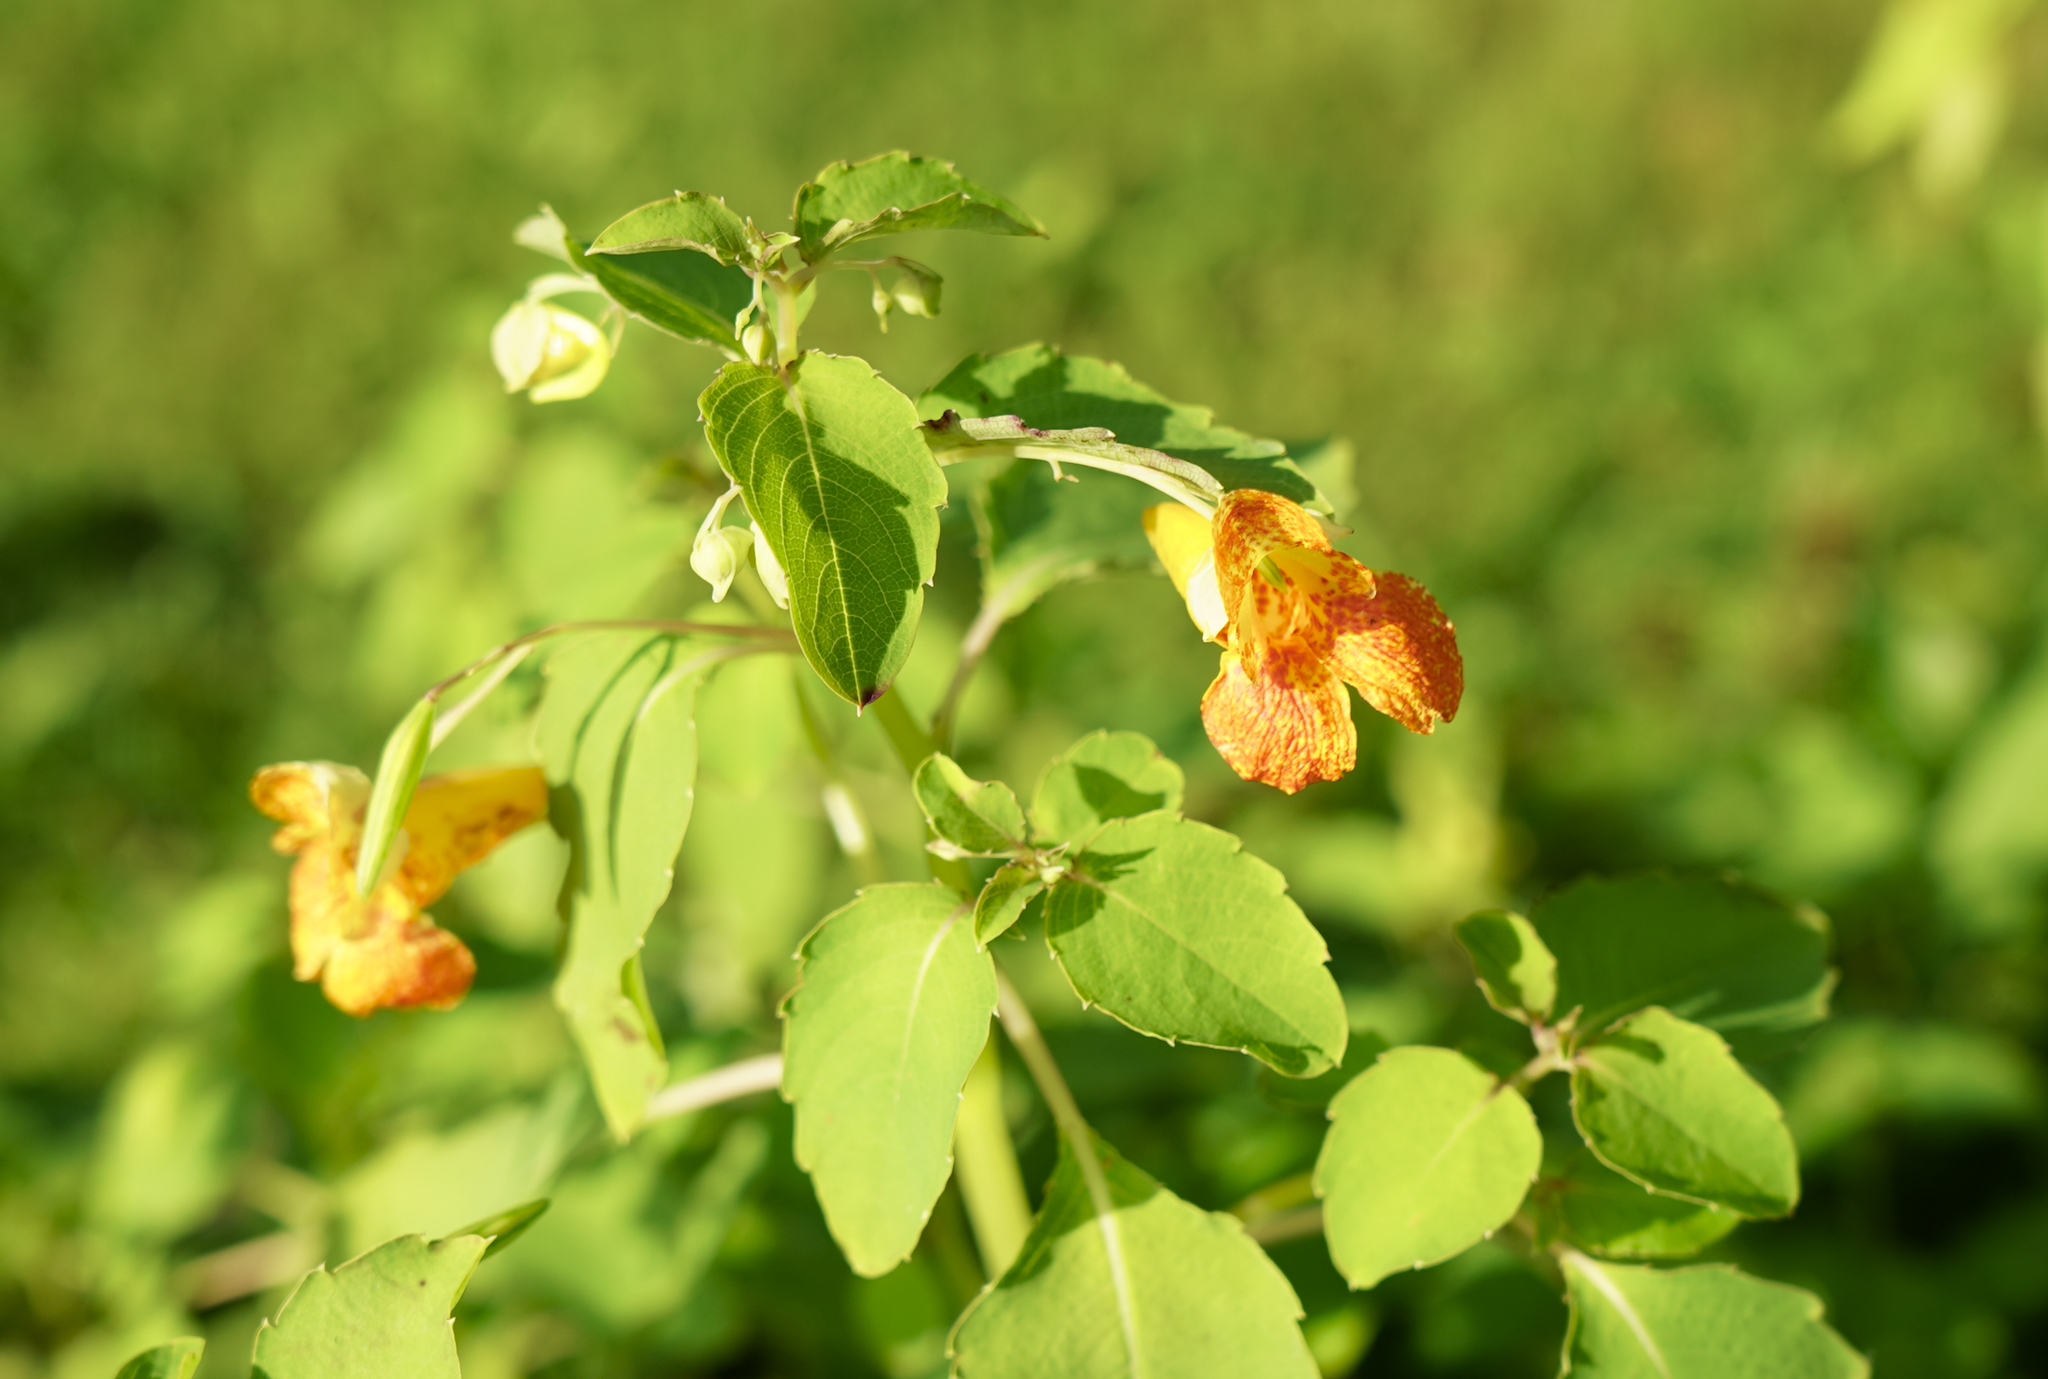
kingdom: Plantae
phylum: Tracheophyta
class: Magnoliopsida
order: Ericales
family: Balsaminaceae
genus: Impatiens
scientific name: Impatiens capensis
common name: Orange balsam
